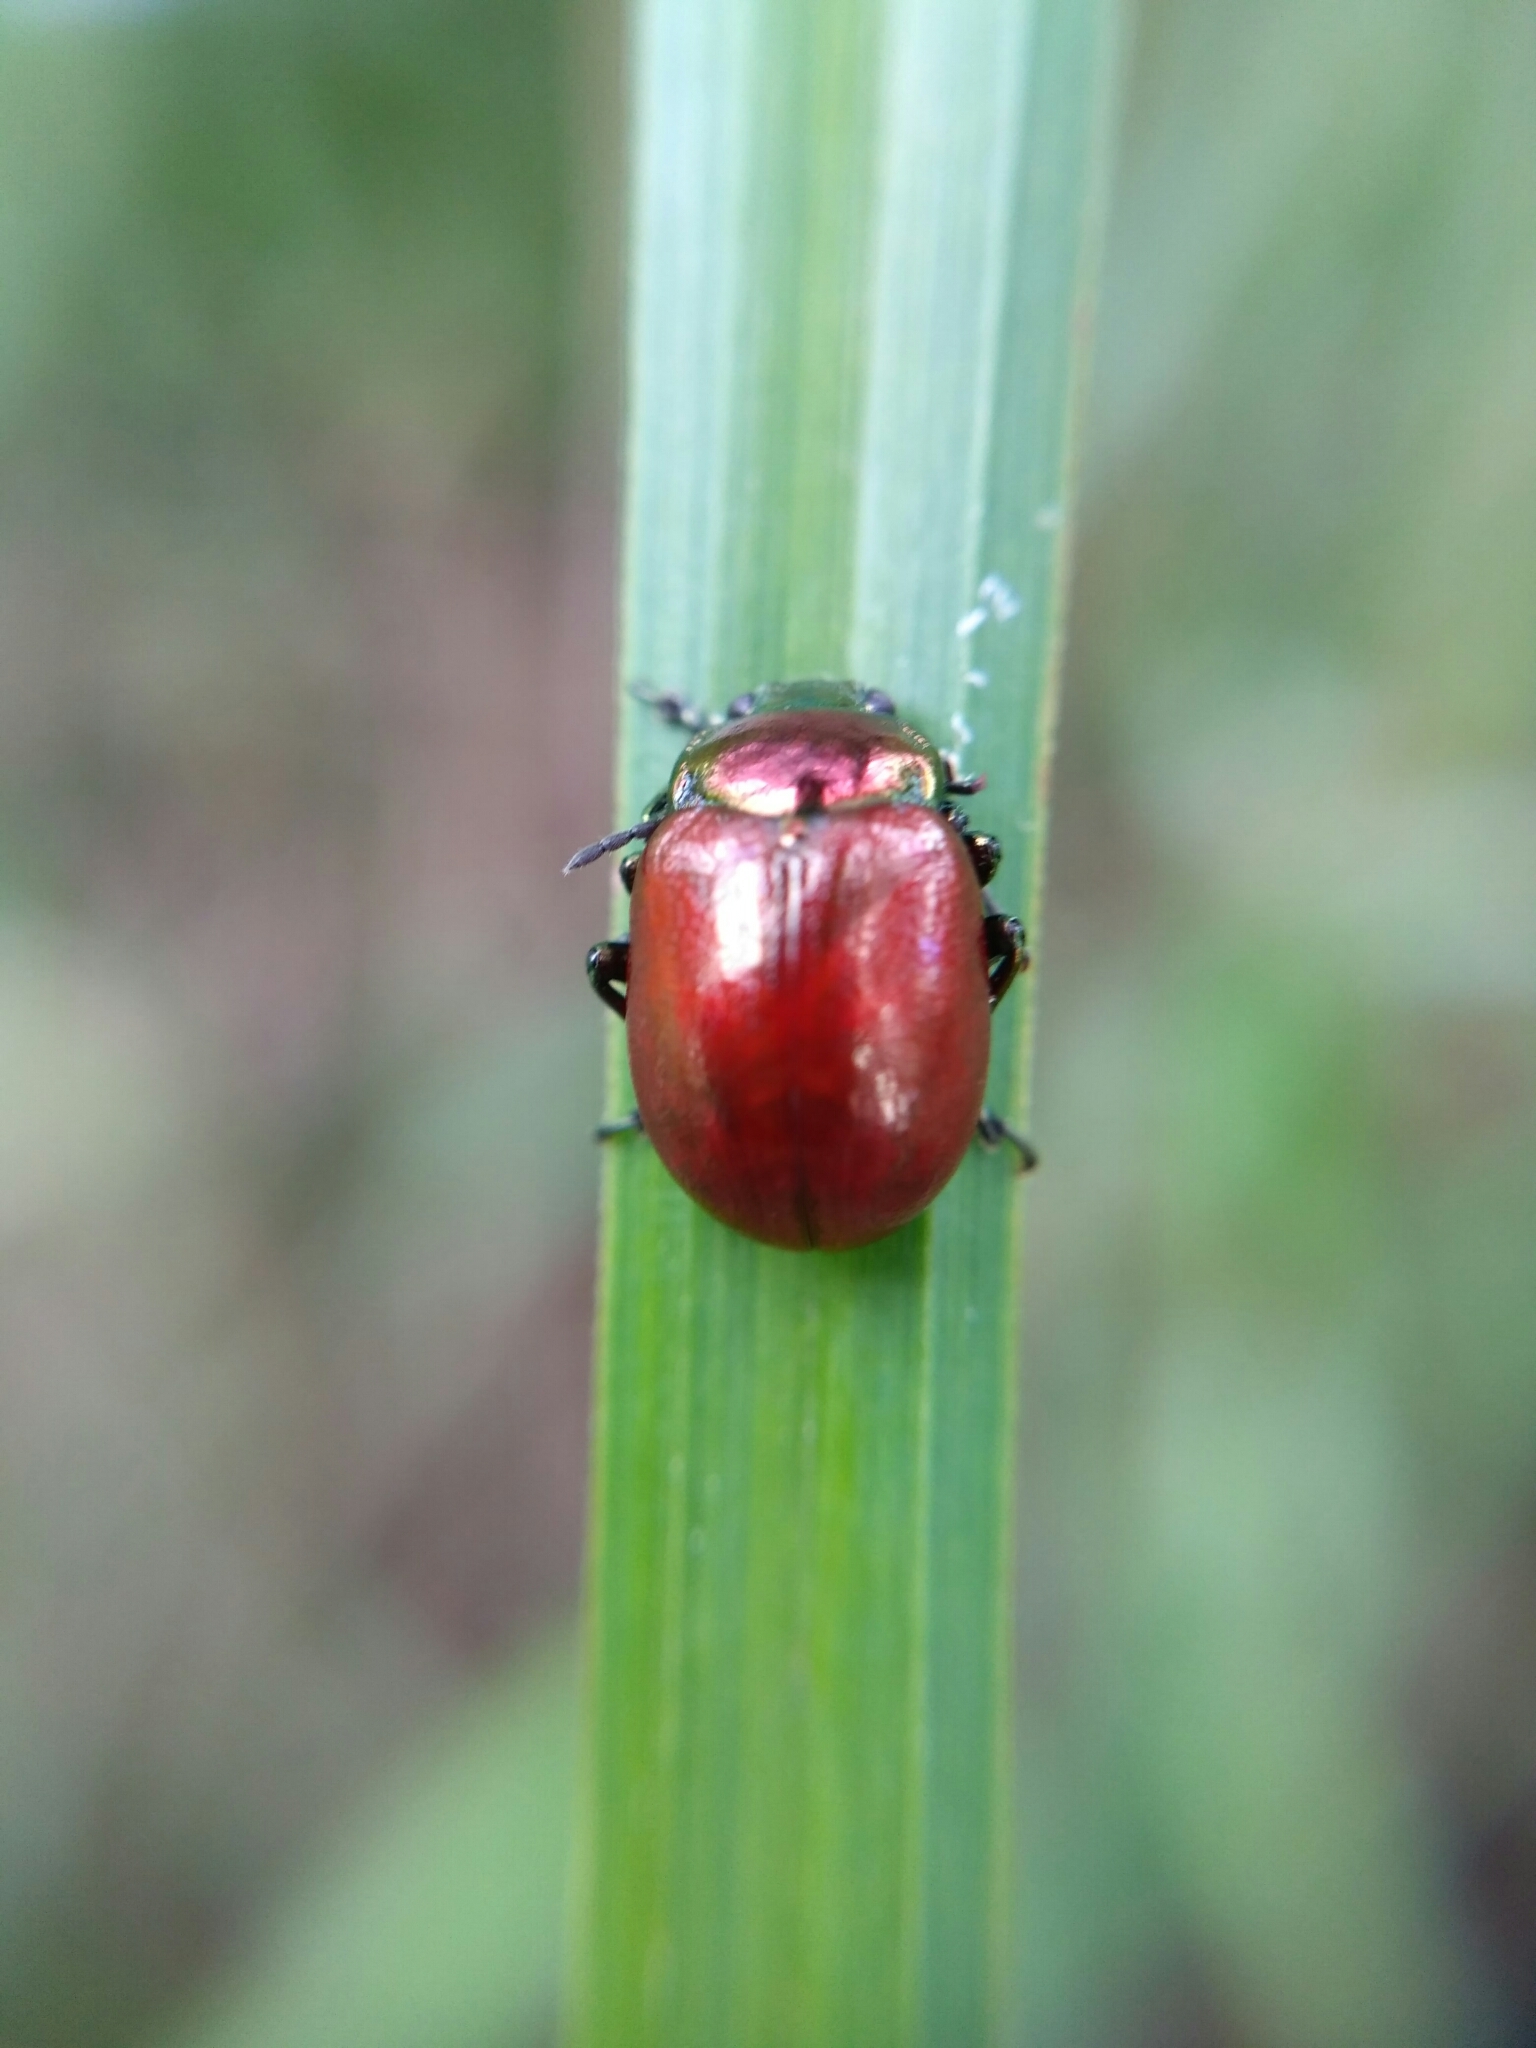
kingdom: Animalia
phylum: Arthropoda
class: Insecta
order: Coleoptera
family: Chrysomelidae
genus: Chrysomela
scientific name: Chrysomela polita
